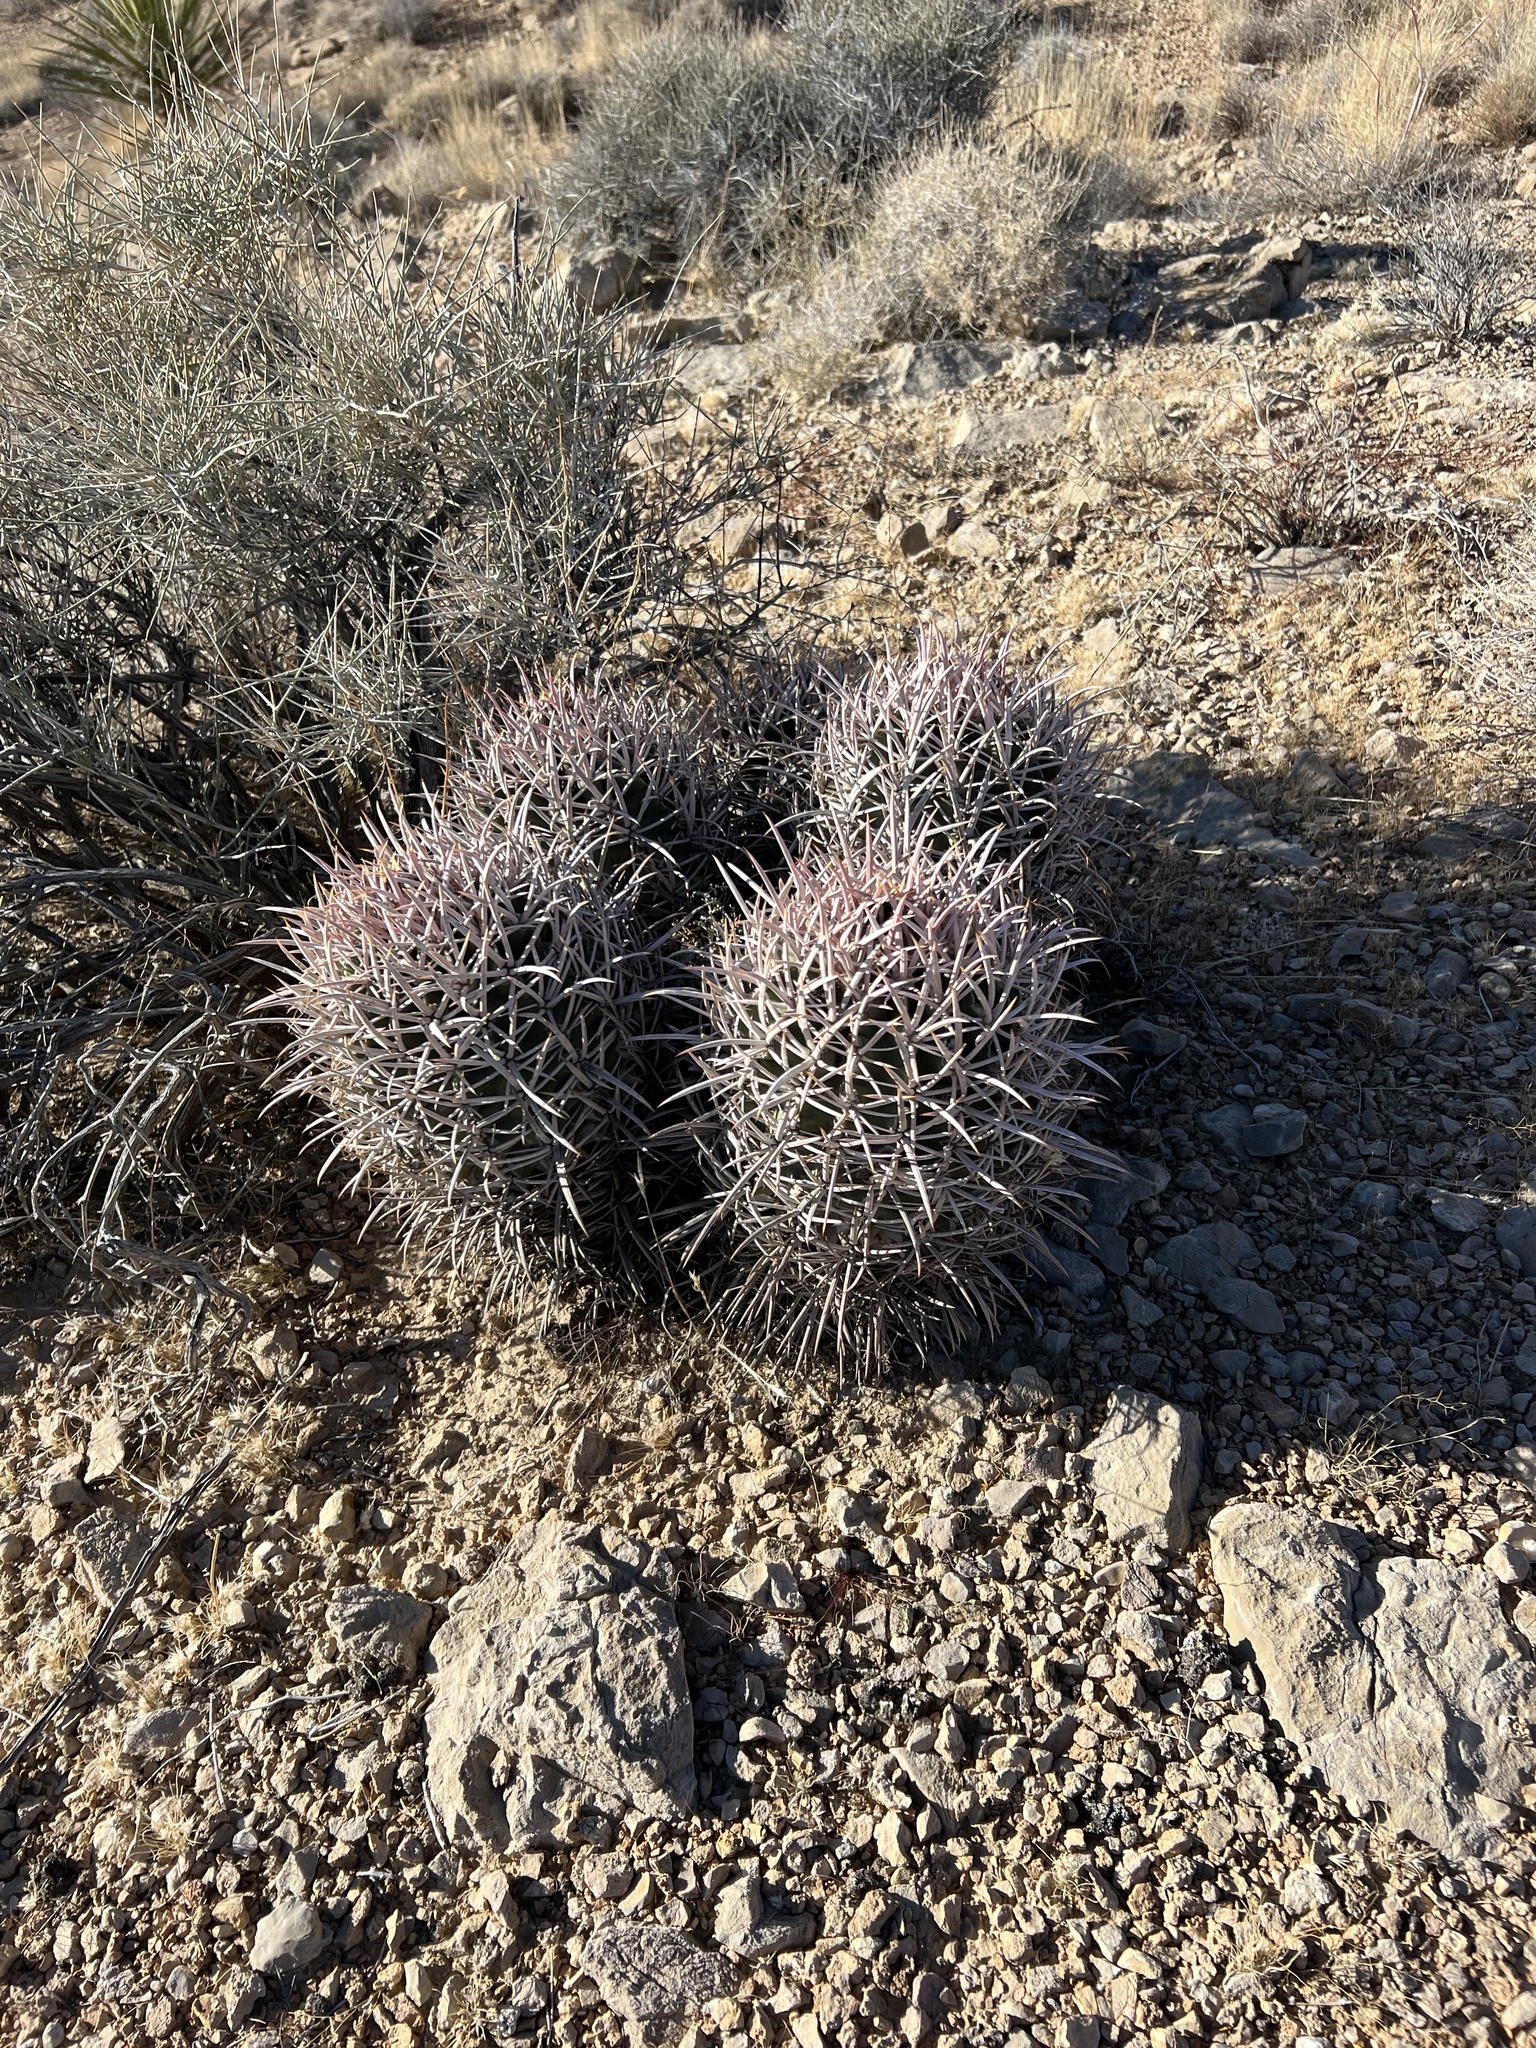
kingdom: Plantae
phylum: Tracheophyta
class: Magnoliopsida
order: Caryophyllales
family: Cactaceae
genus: Echinocactus
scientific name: Echinocactus polycephalus
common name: Cottontop cactus
